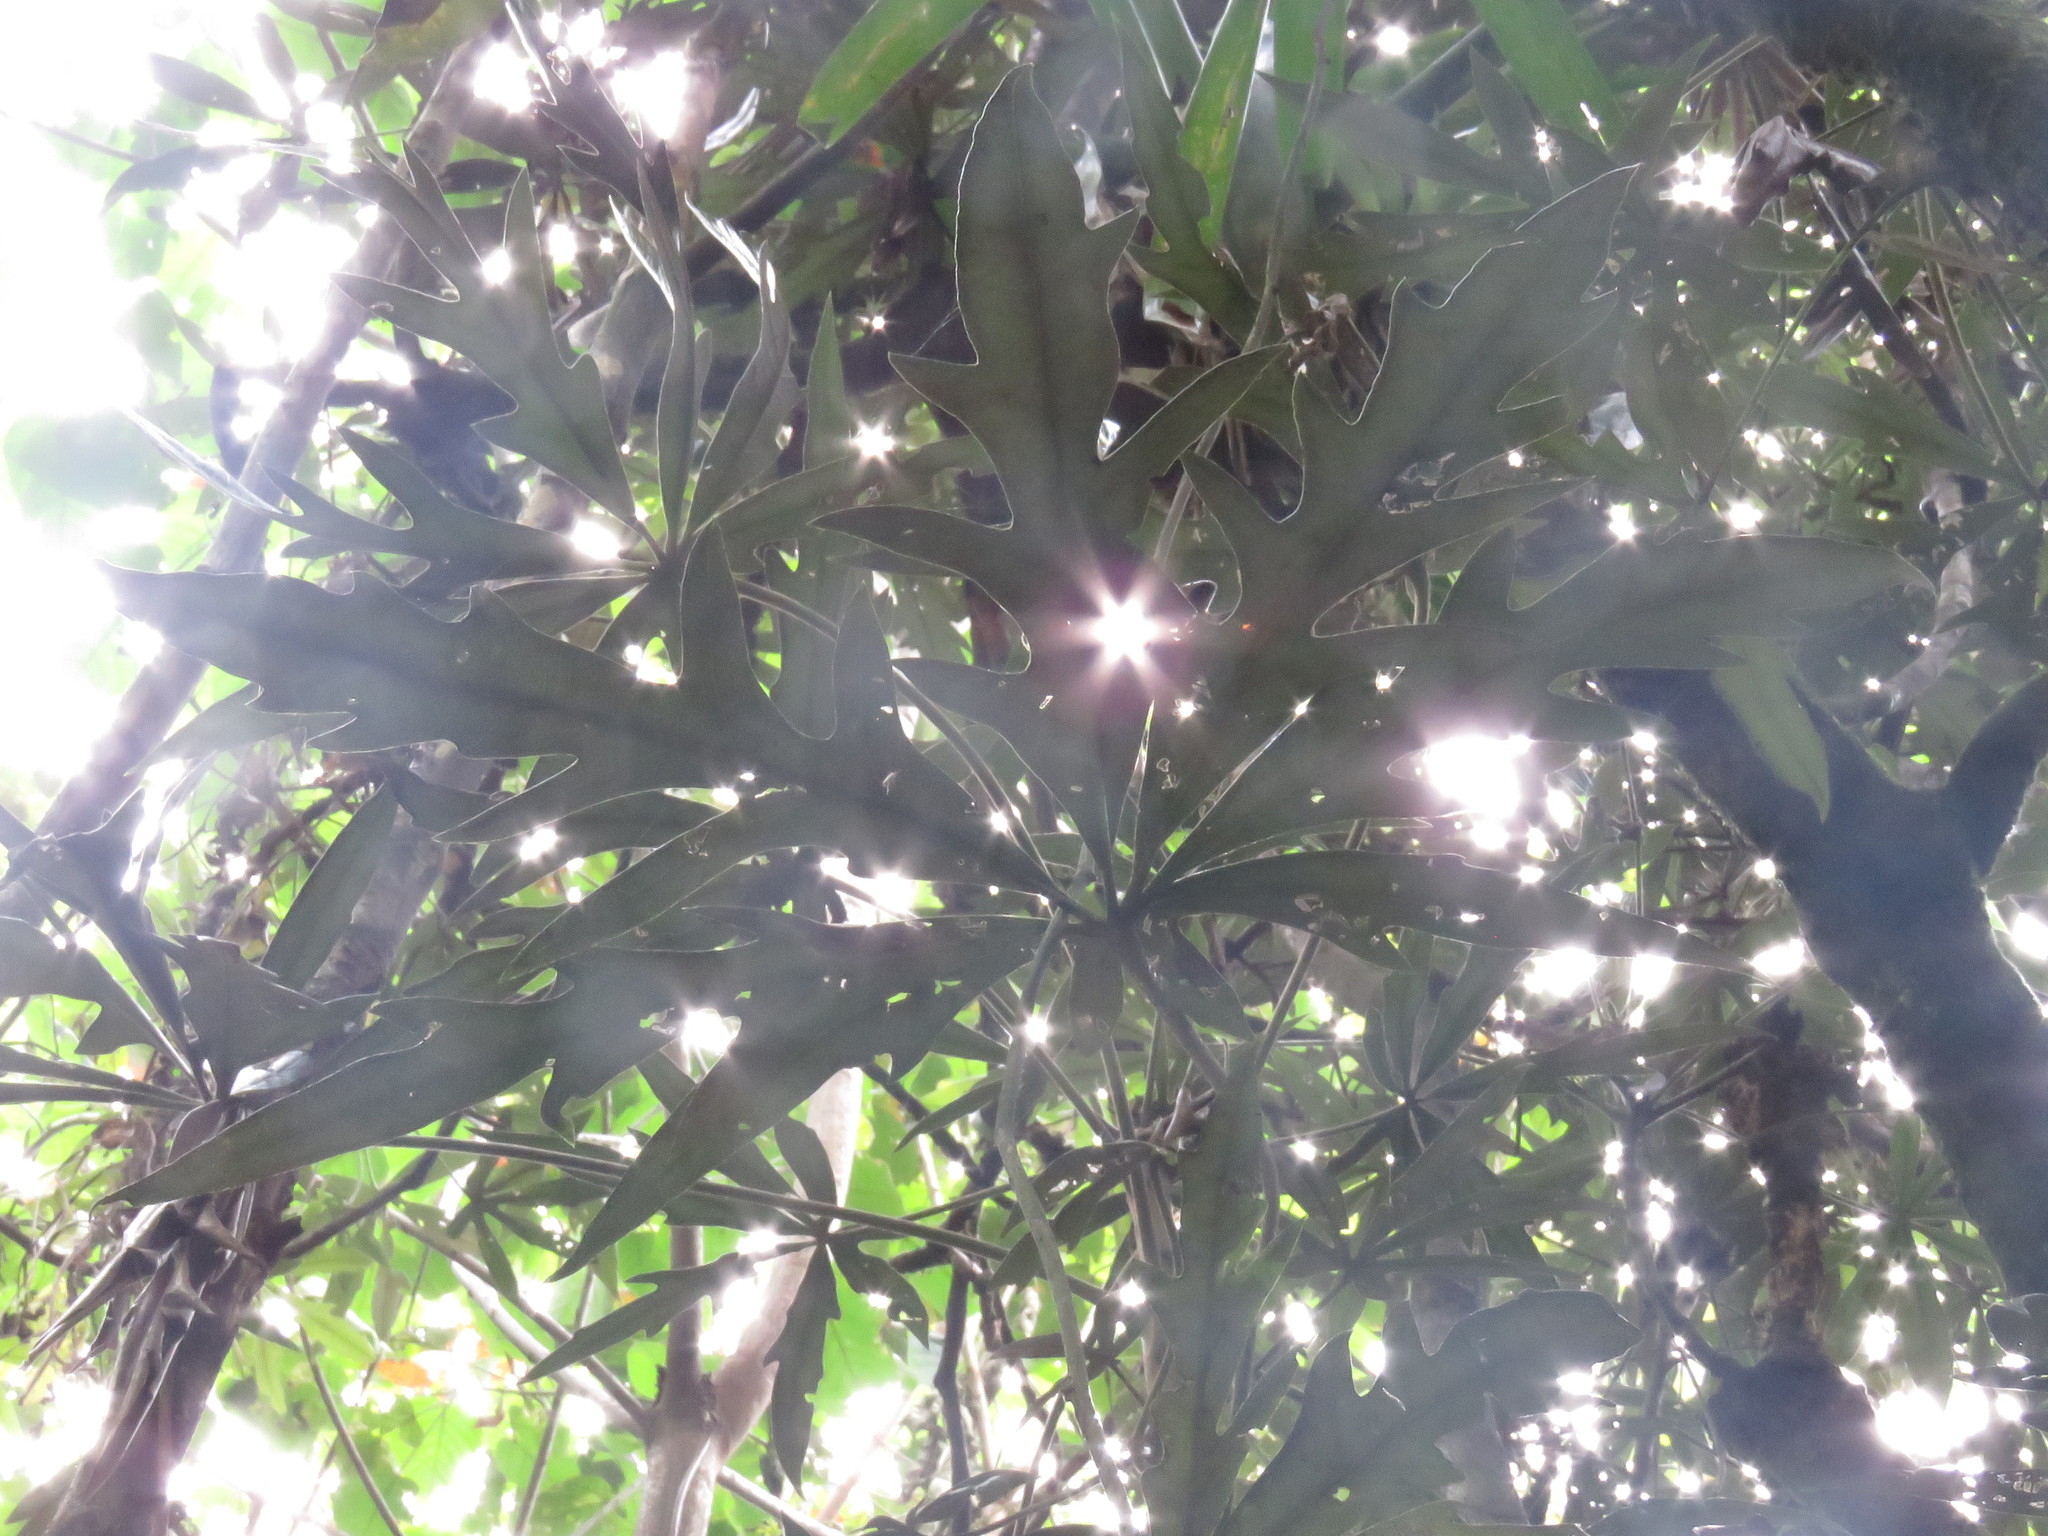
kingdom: Plantae
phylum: Tracheophyta
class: Magnoliopsida
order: Apiales
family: Araliaceae
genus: Oreopanax
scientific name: Oreopanax incisus
